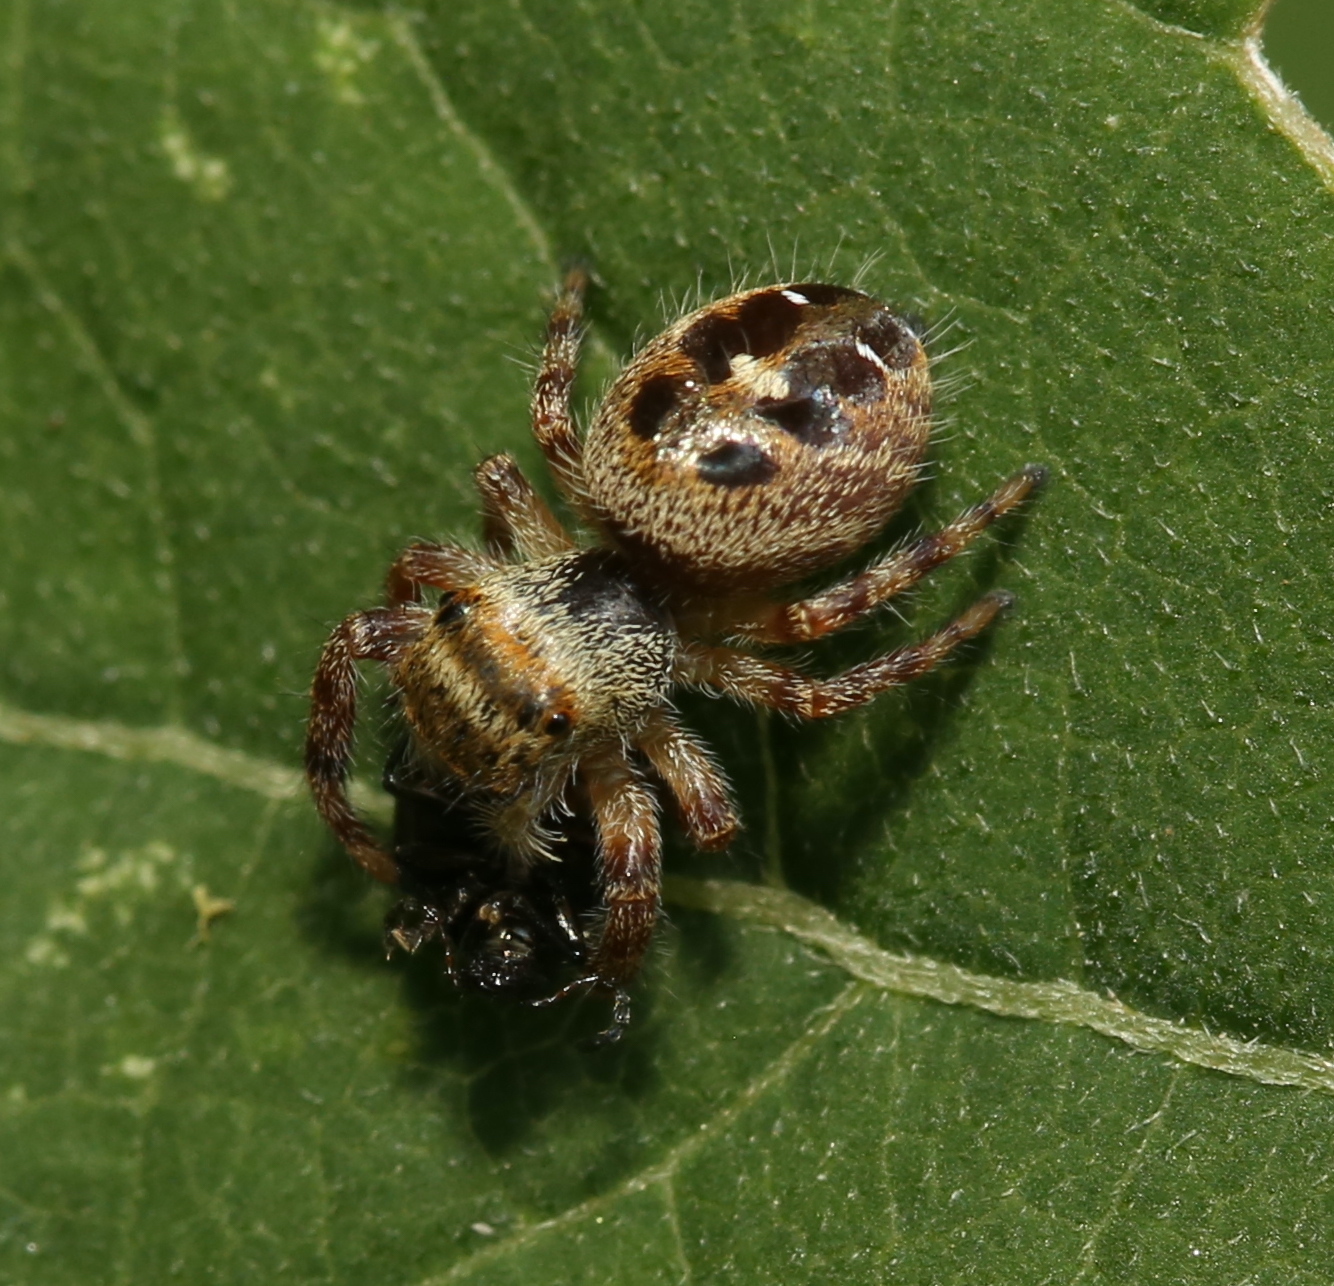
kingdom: Animalia
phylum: Arthropoda
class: Arachnida
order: Araneae
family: Salticidae
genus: Phidippus
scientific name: Phidippus princeps
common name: Grayish jumping spider
